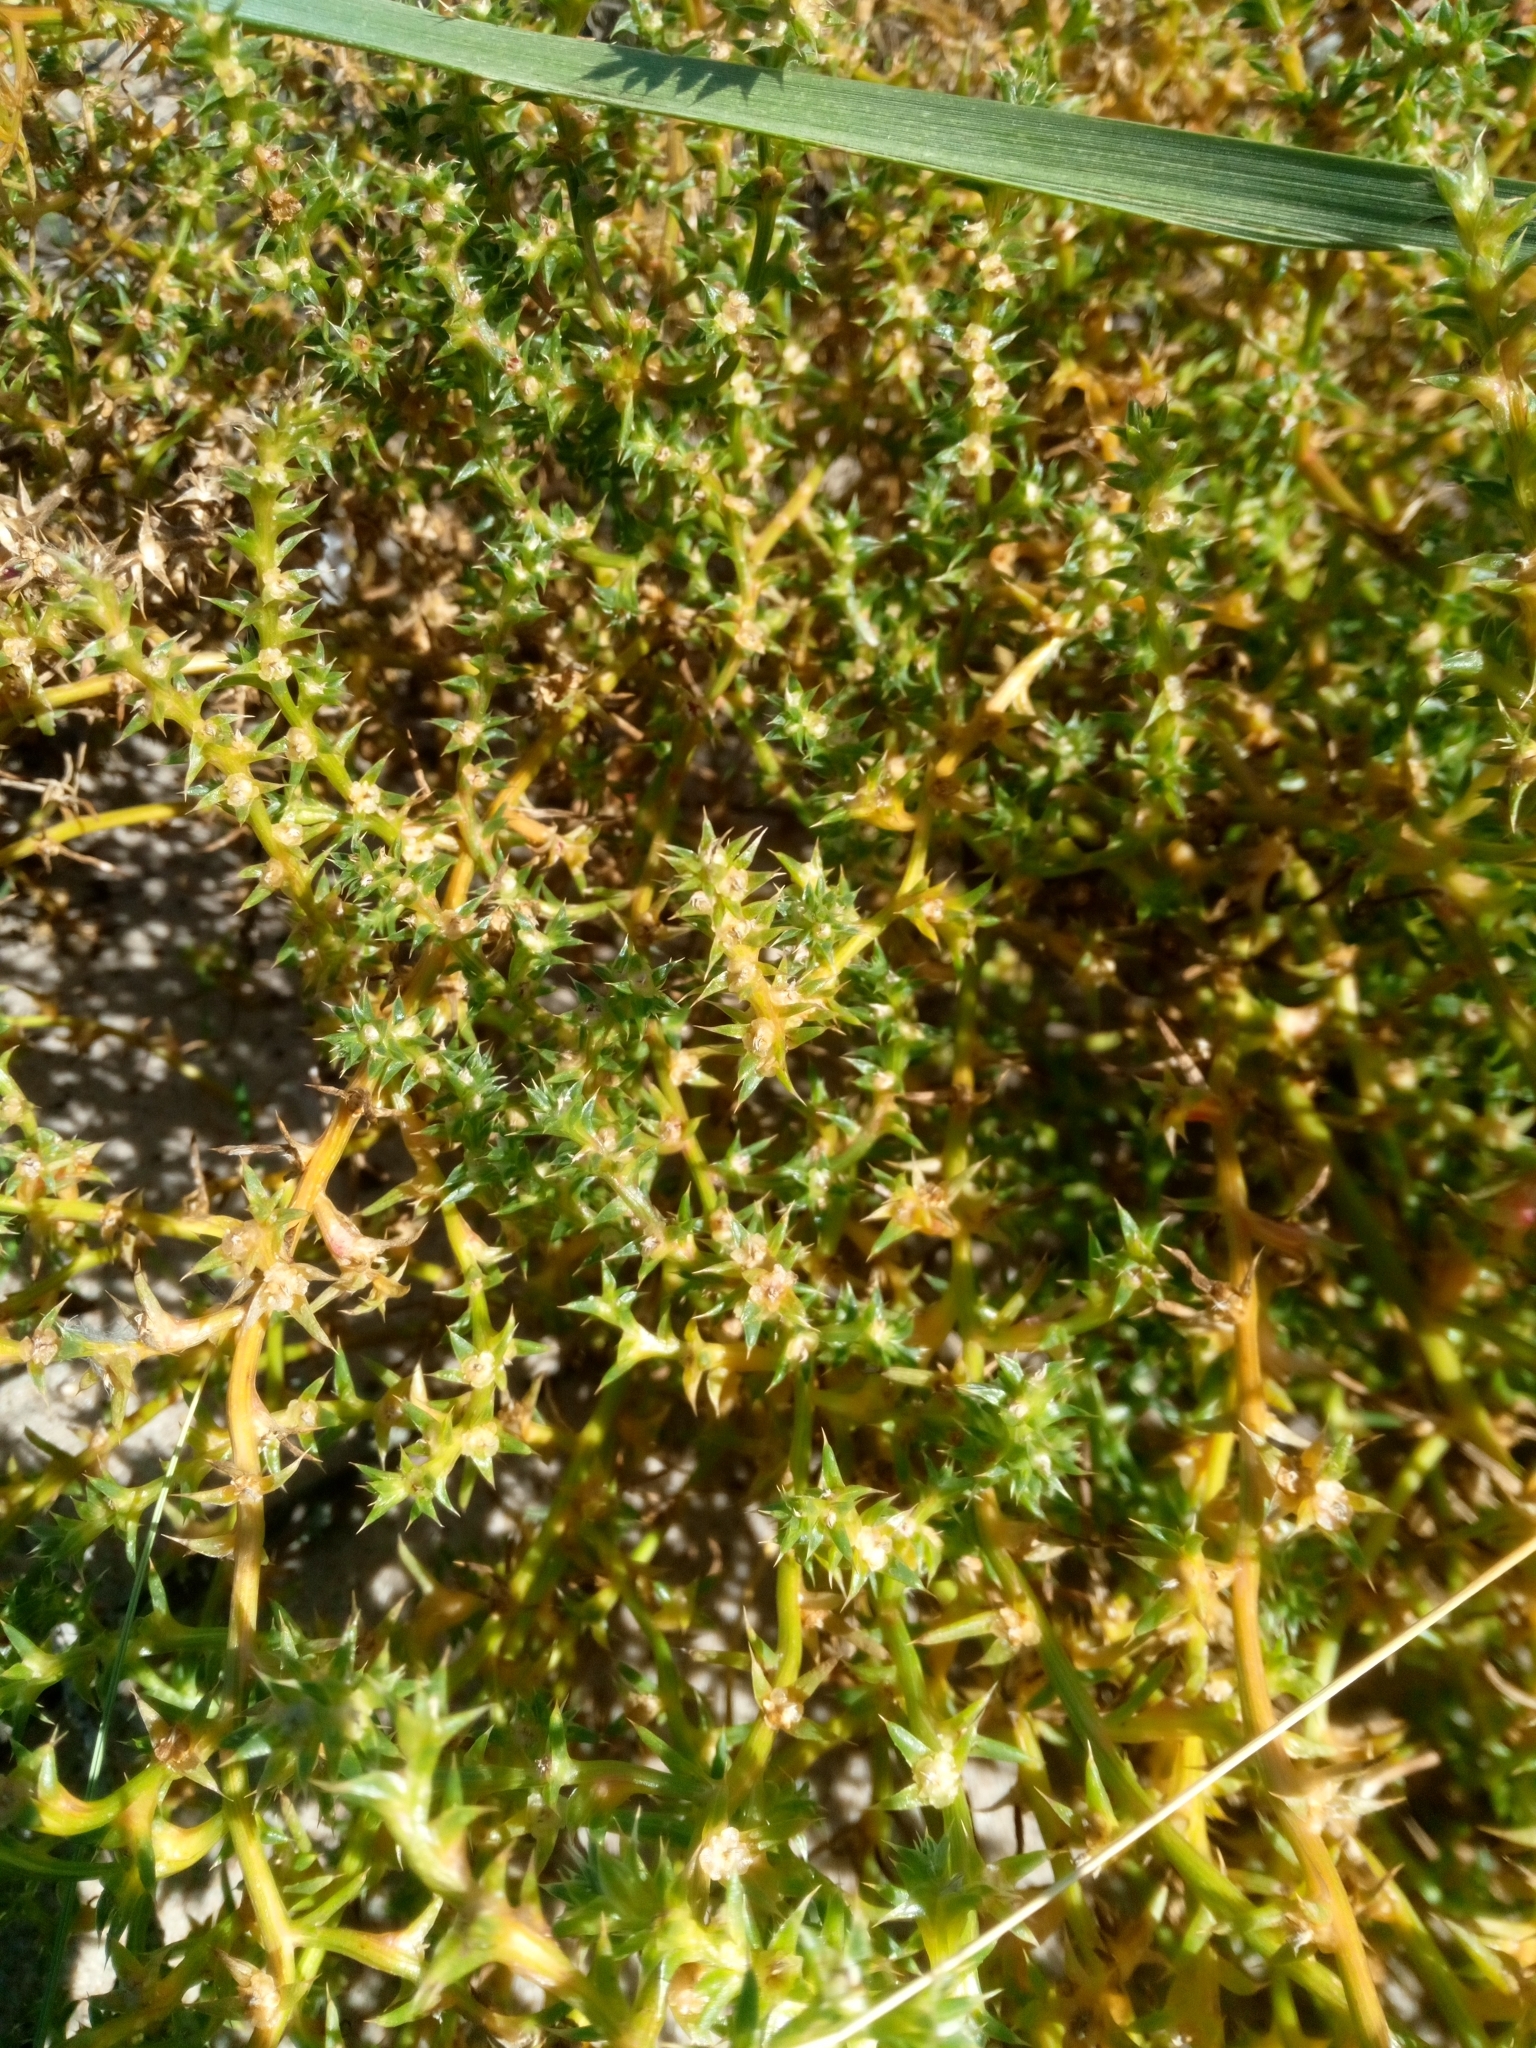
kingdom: Plantae
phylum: Tracheophyta
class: Magnoliopsida
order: Caryophyllales
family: Amaranthaceae
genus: Salsola
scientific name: Salsola kali
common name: Saltwort
